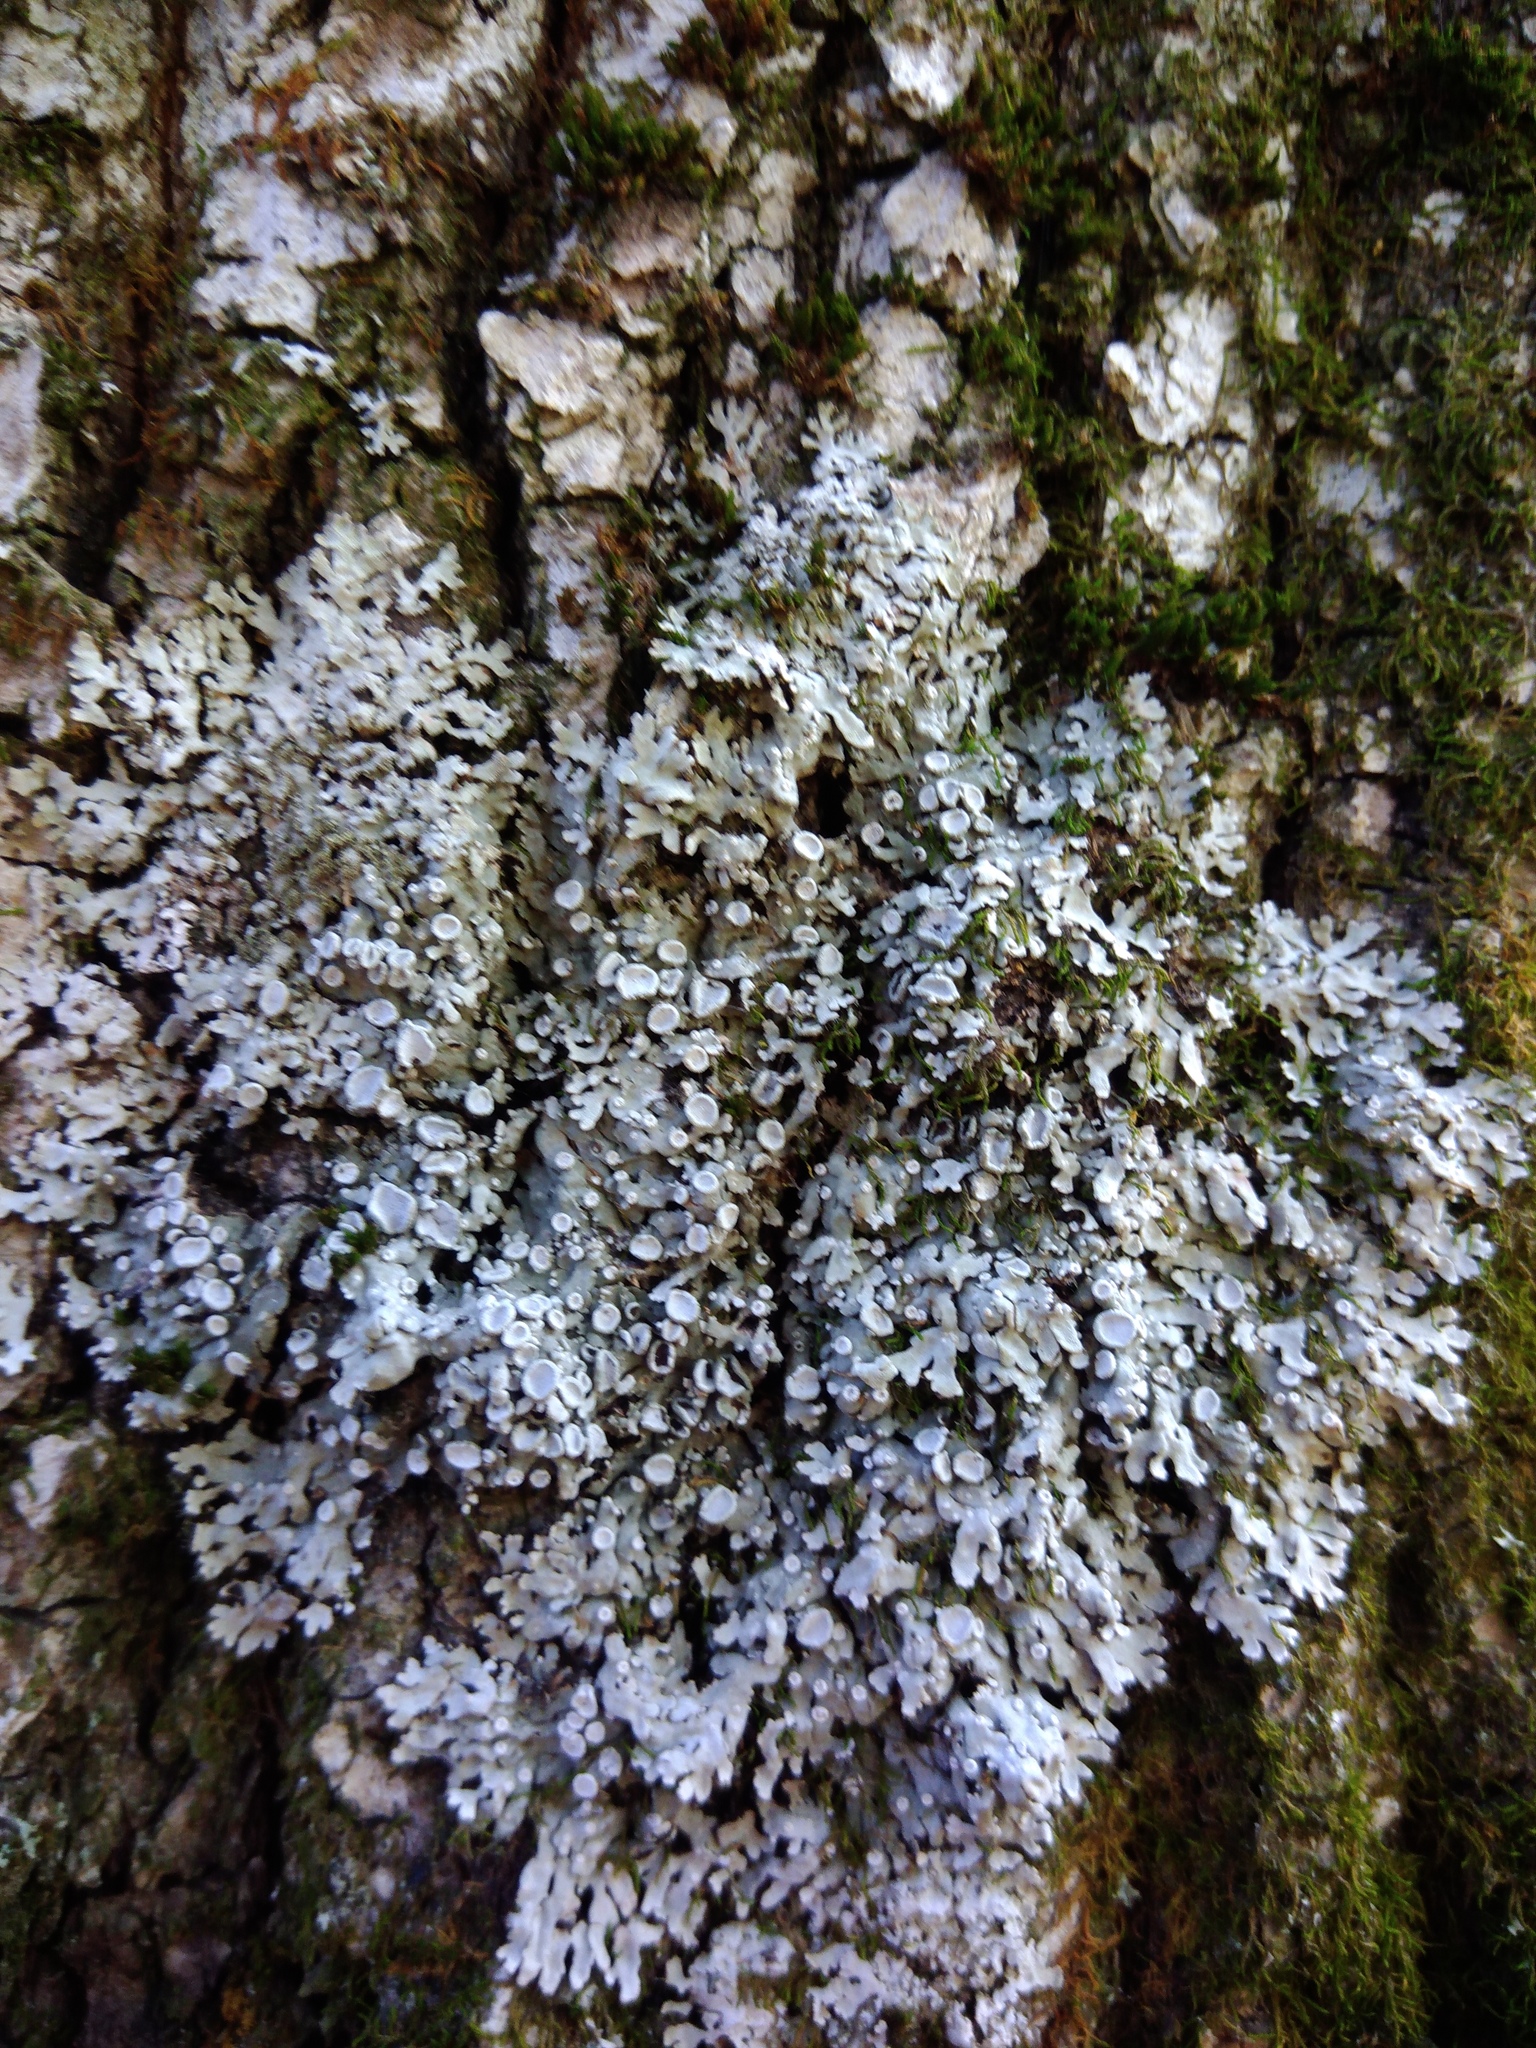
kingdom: Fungi
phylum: Ascomycota
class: Lecanoromycetes
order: Caliciales
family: Physciaceae
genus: Physconia
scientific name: Physconia distorta
